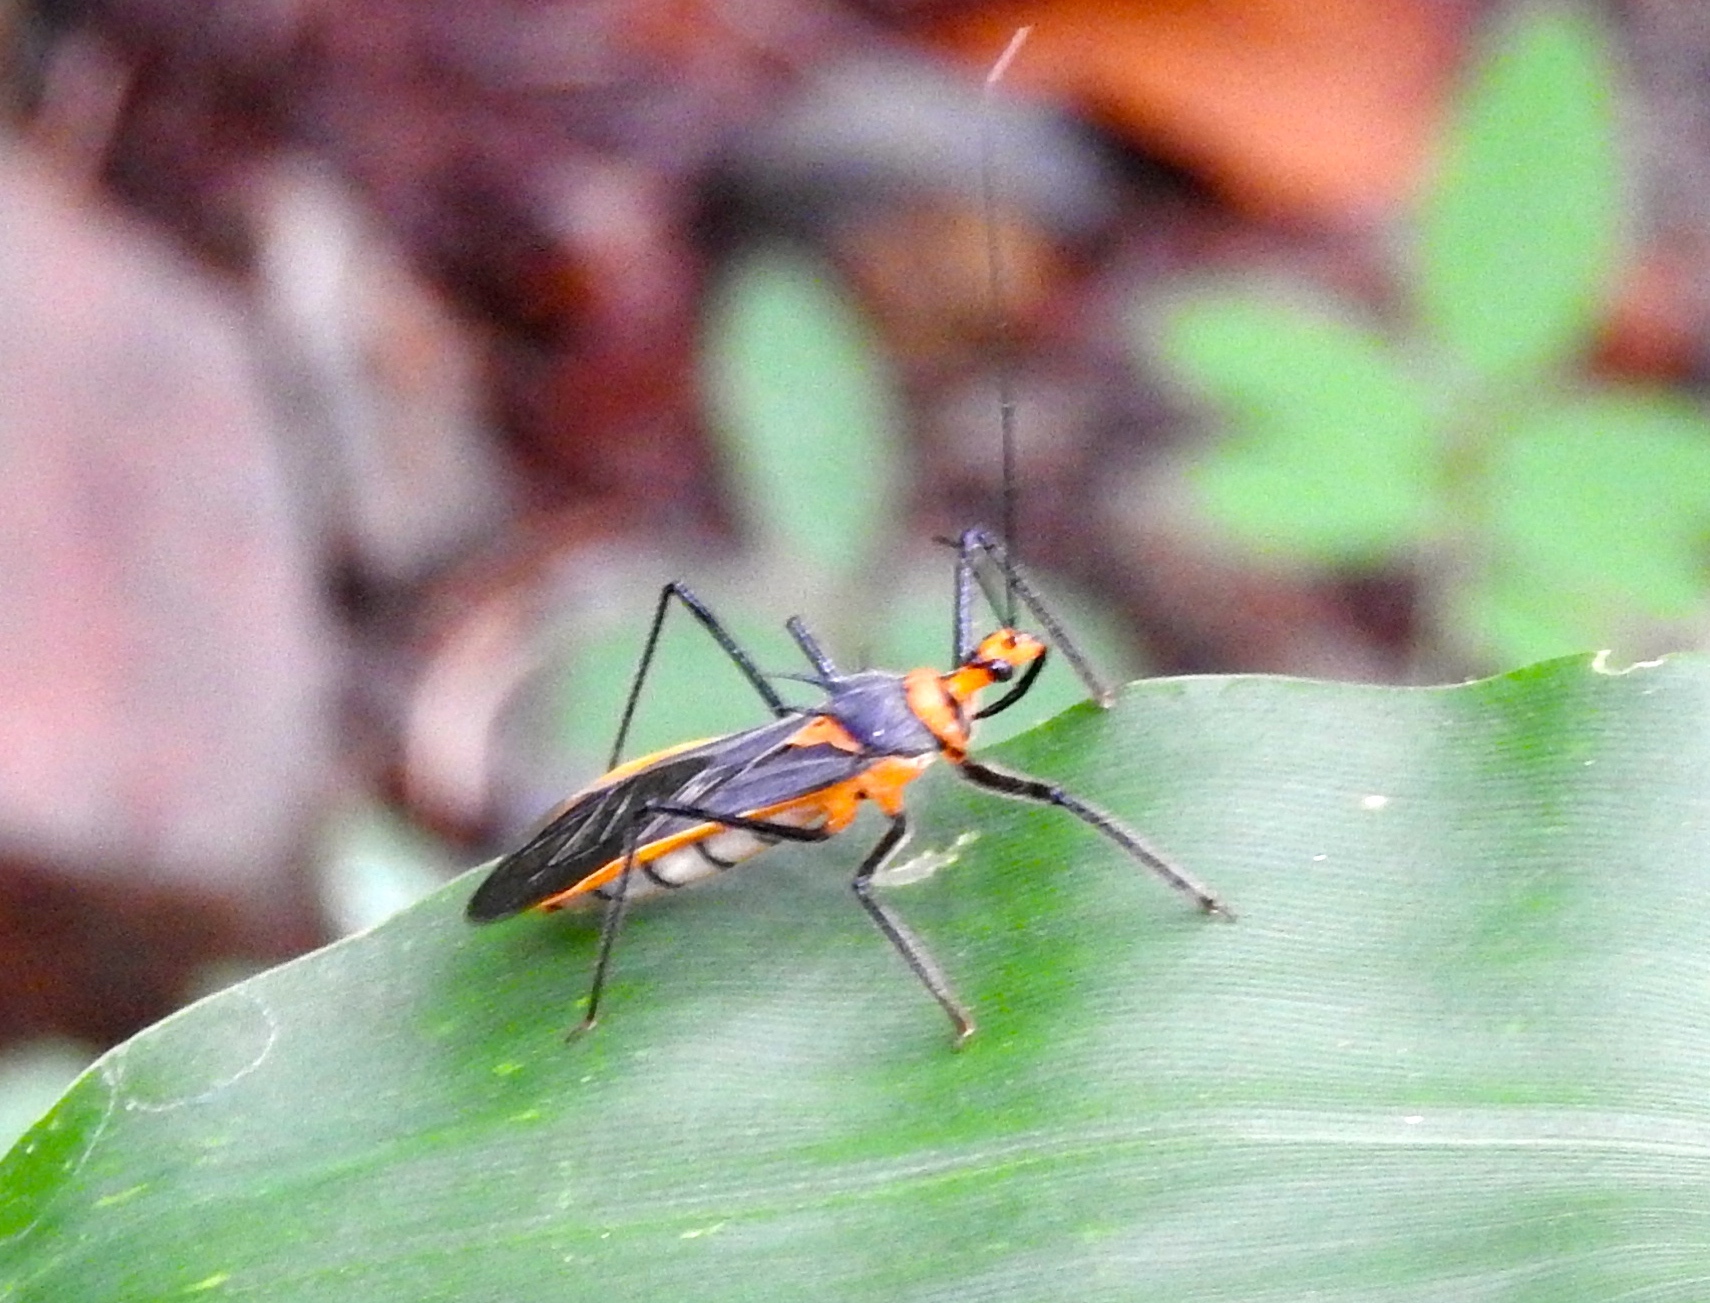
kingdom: Animalia
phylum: Arthropoda
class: Insecta
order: Hemiptera
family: Reduviidae
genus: Repipta
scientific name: Repipta fuscipes
